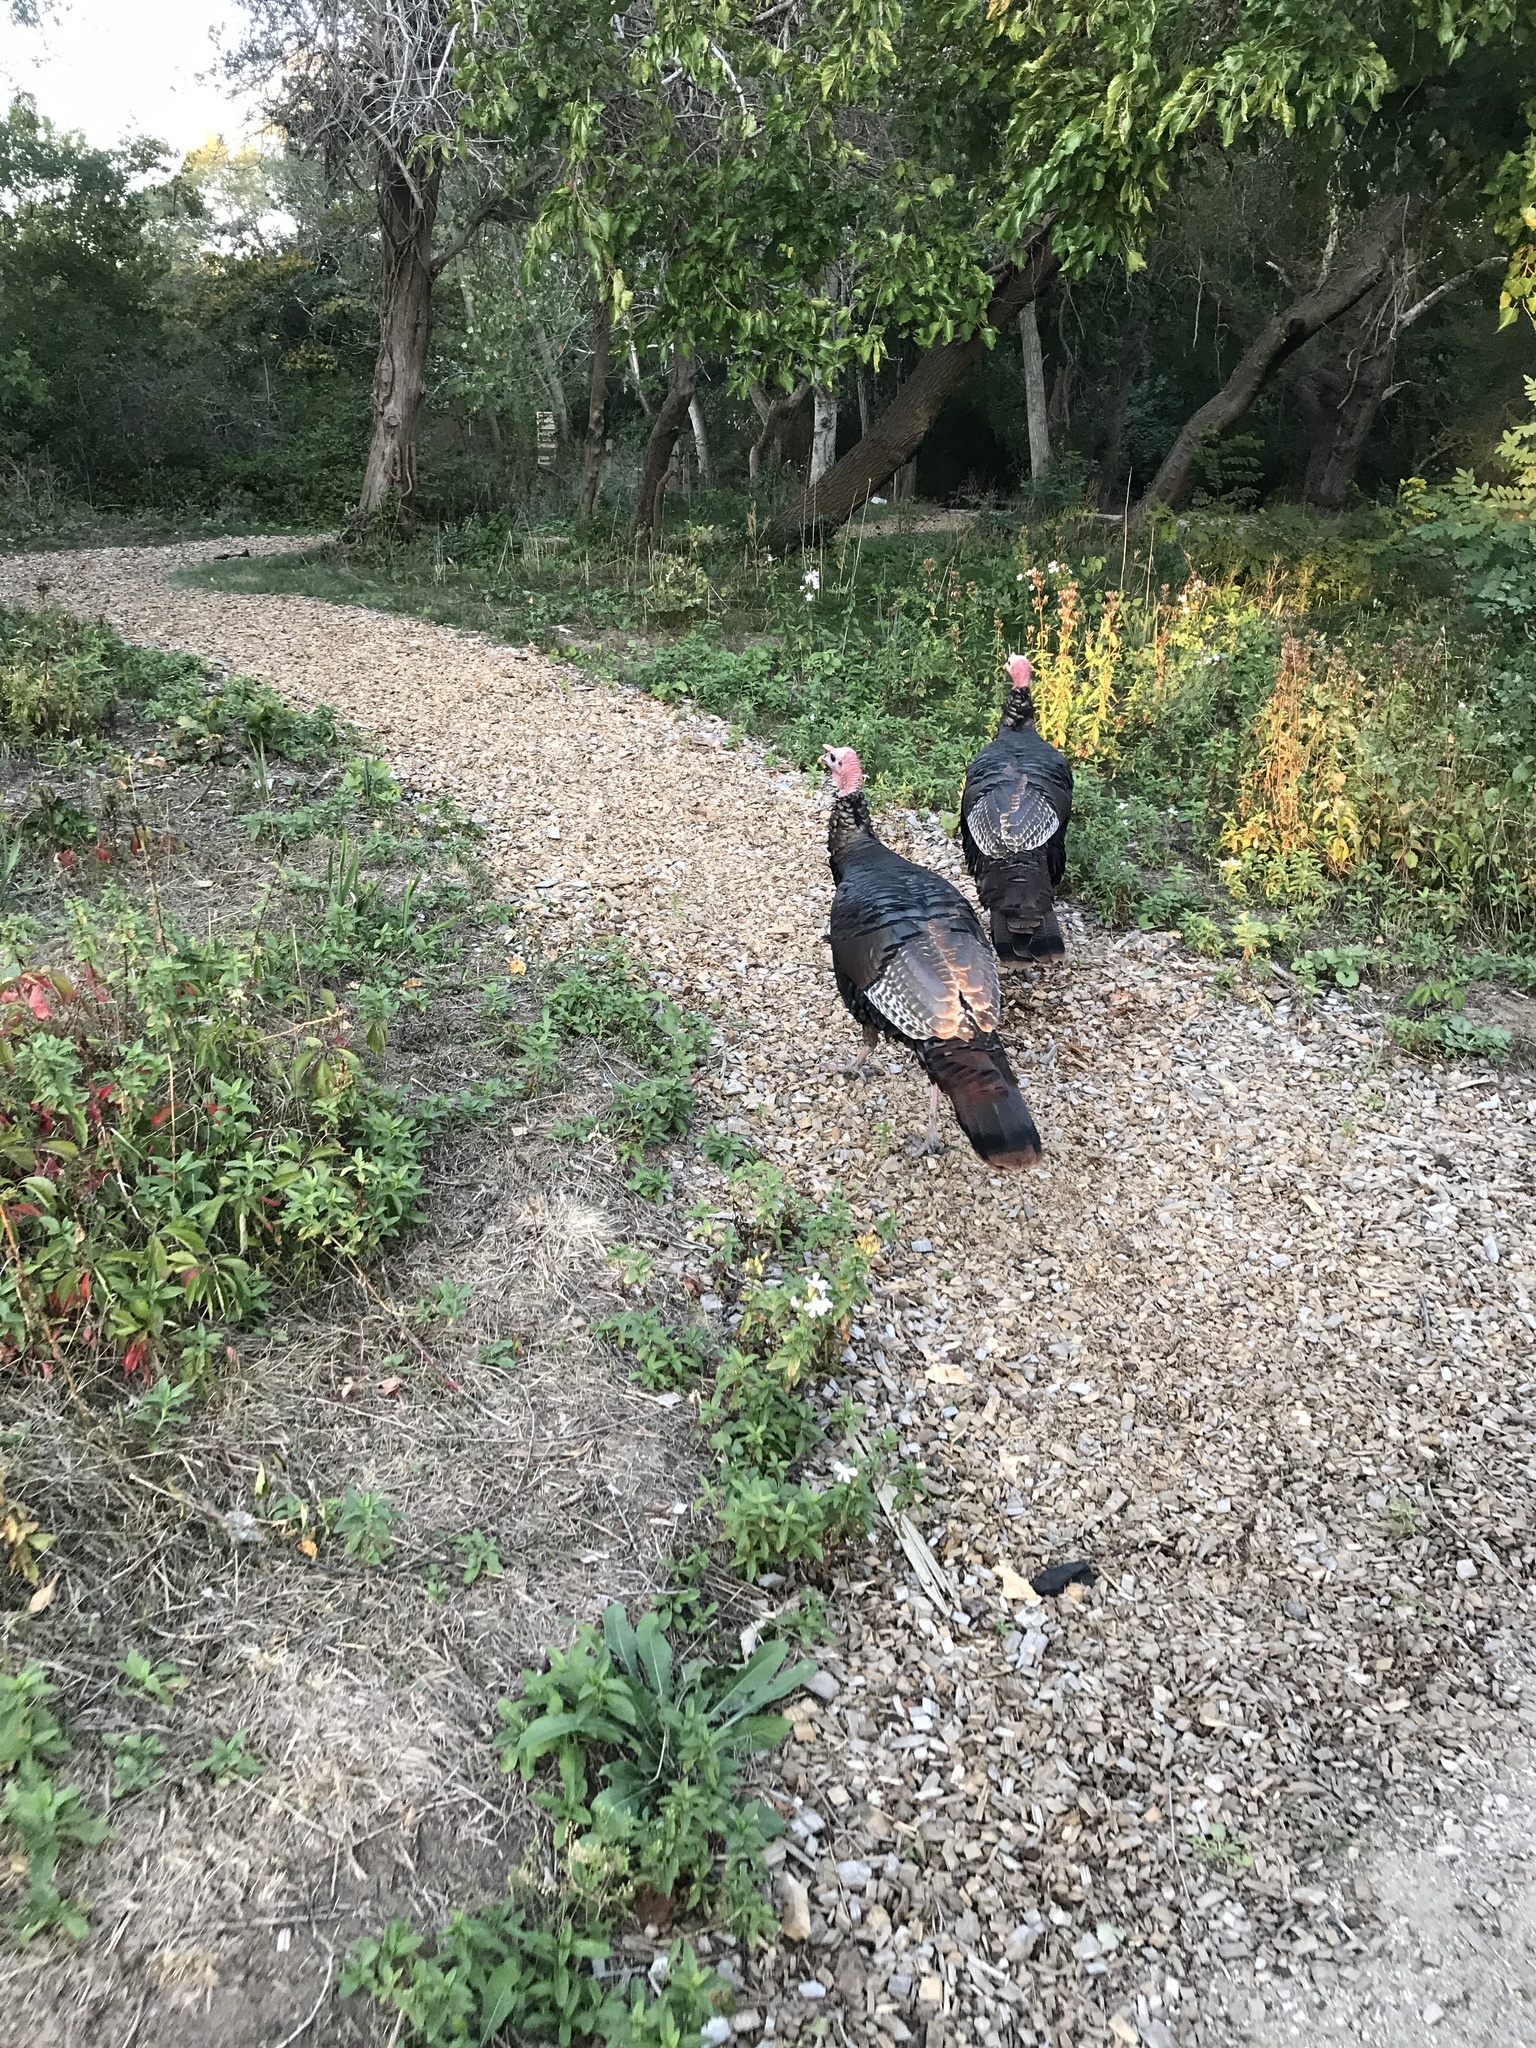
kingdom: Animalia
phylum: Chordata
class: Aves
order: Galliformes
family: Phasianidae
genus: Meleagris
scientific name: Meleagris gallopavo
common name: Wild turkey
